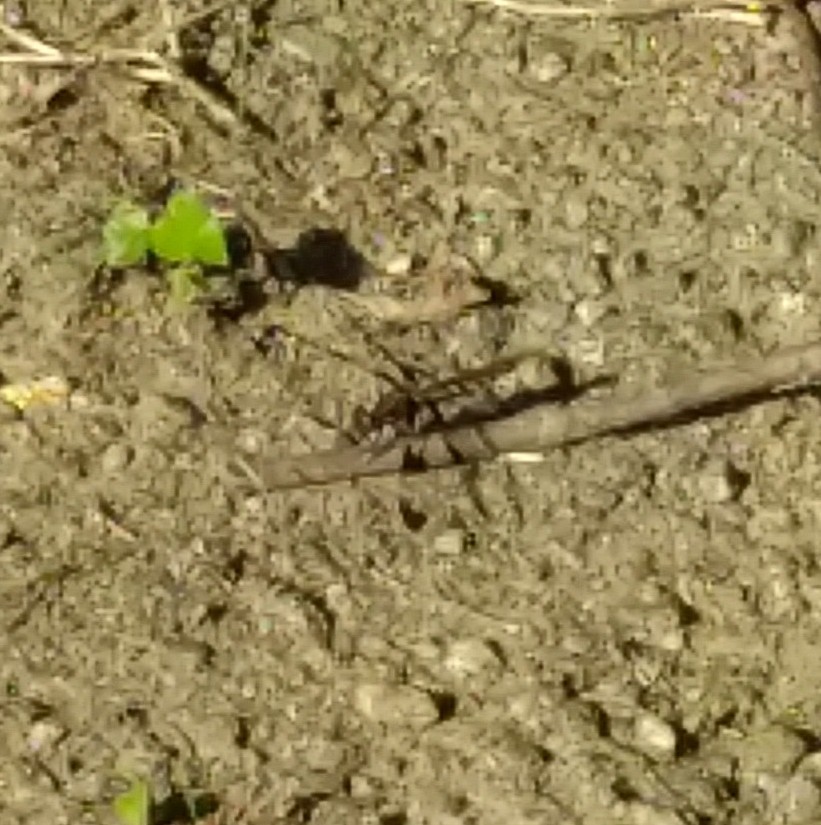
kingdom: Animalia
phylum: Arthropoda
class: Insecta
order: Odonata
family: Libellulidae
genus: Plathemis
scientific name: Plathemis lydia
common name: Common whitetail
